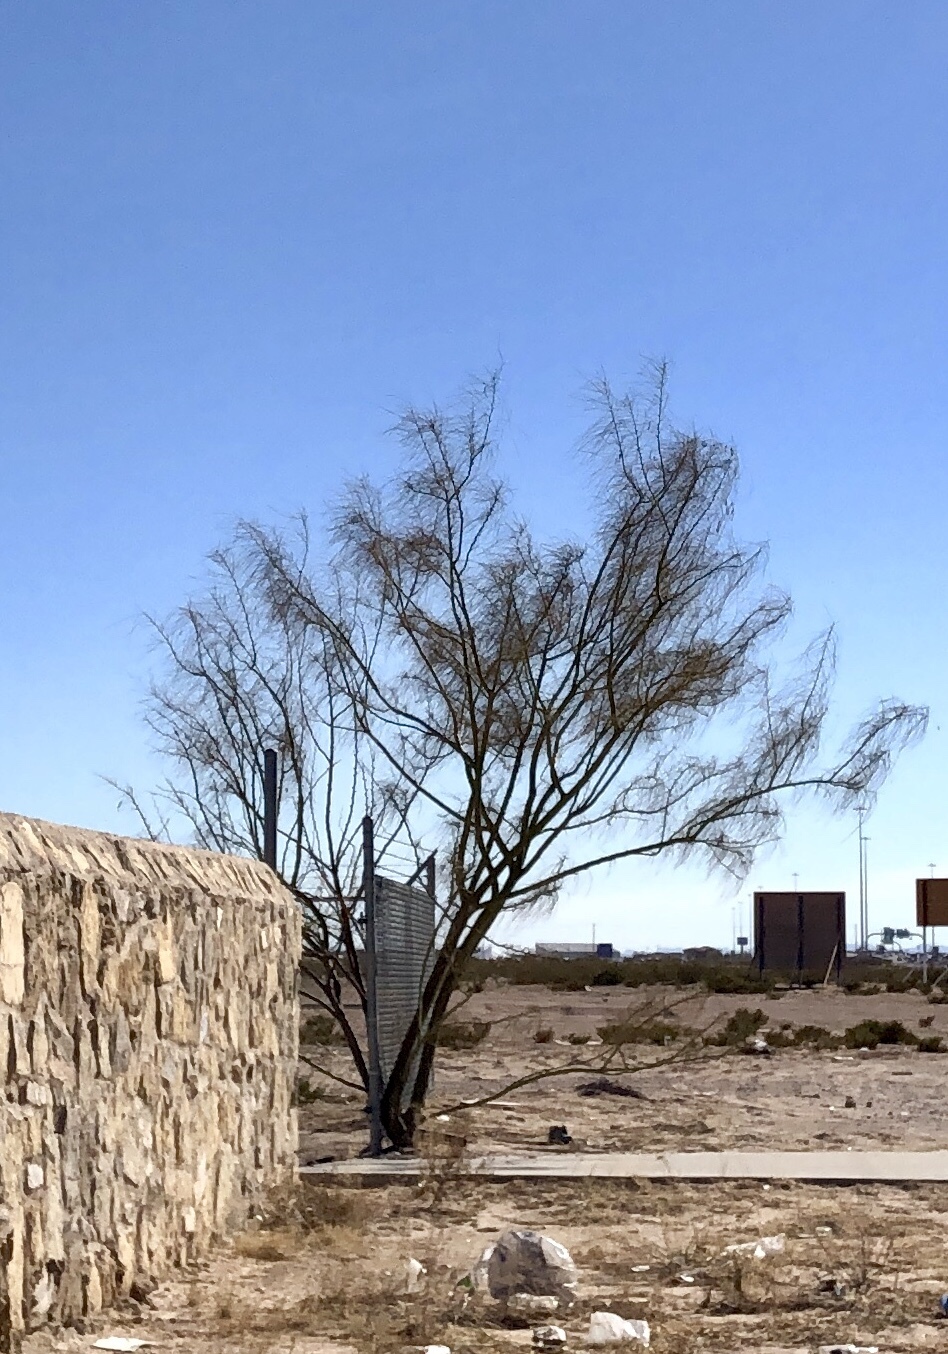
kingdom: Plantae
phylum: Tracheophyta
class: Magnoliopsida
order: Fabales
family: Fabaceae
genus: Parkinsonia
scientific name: Parkinsonia aculeata
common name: Jerusalem thorn
